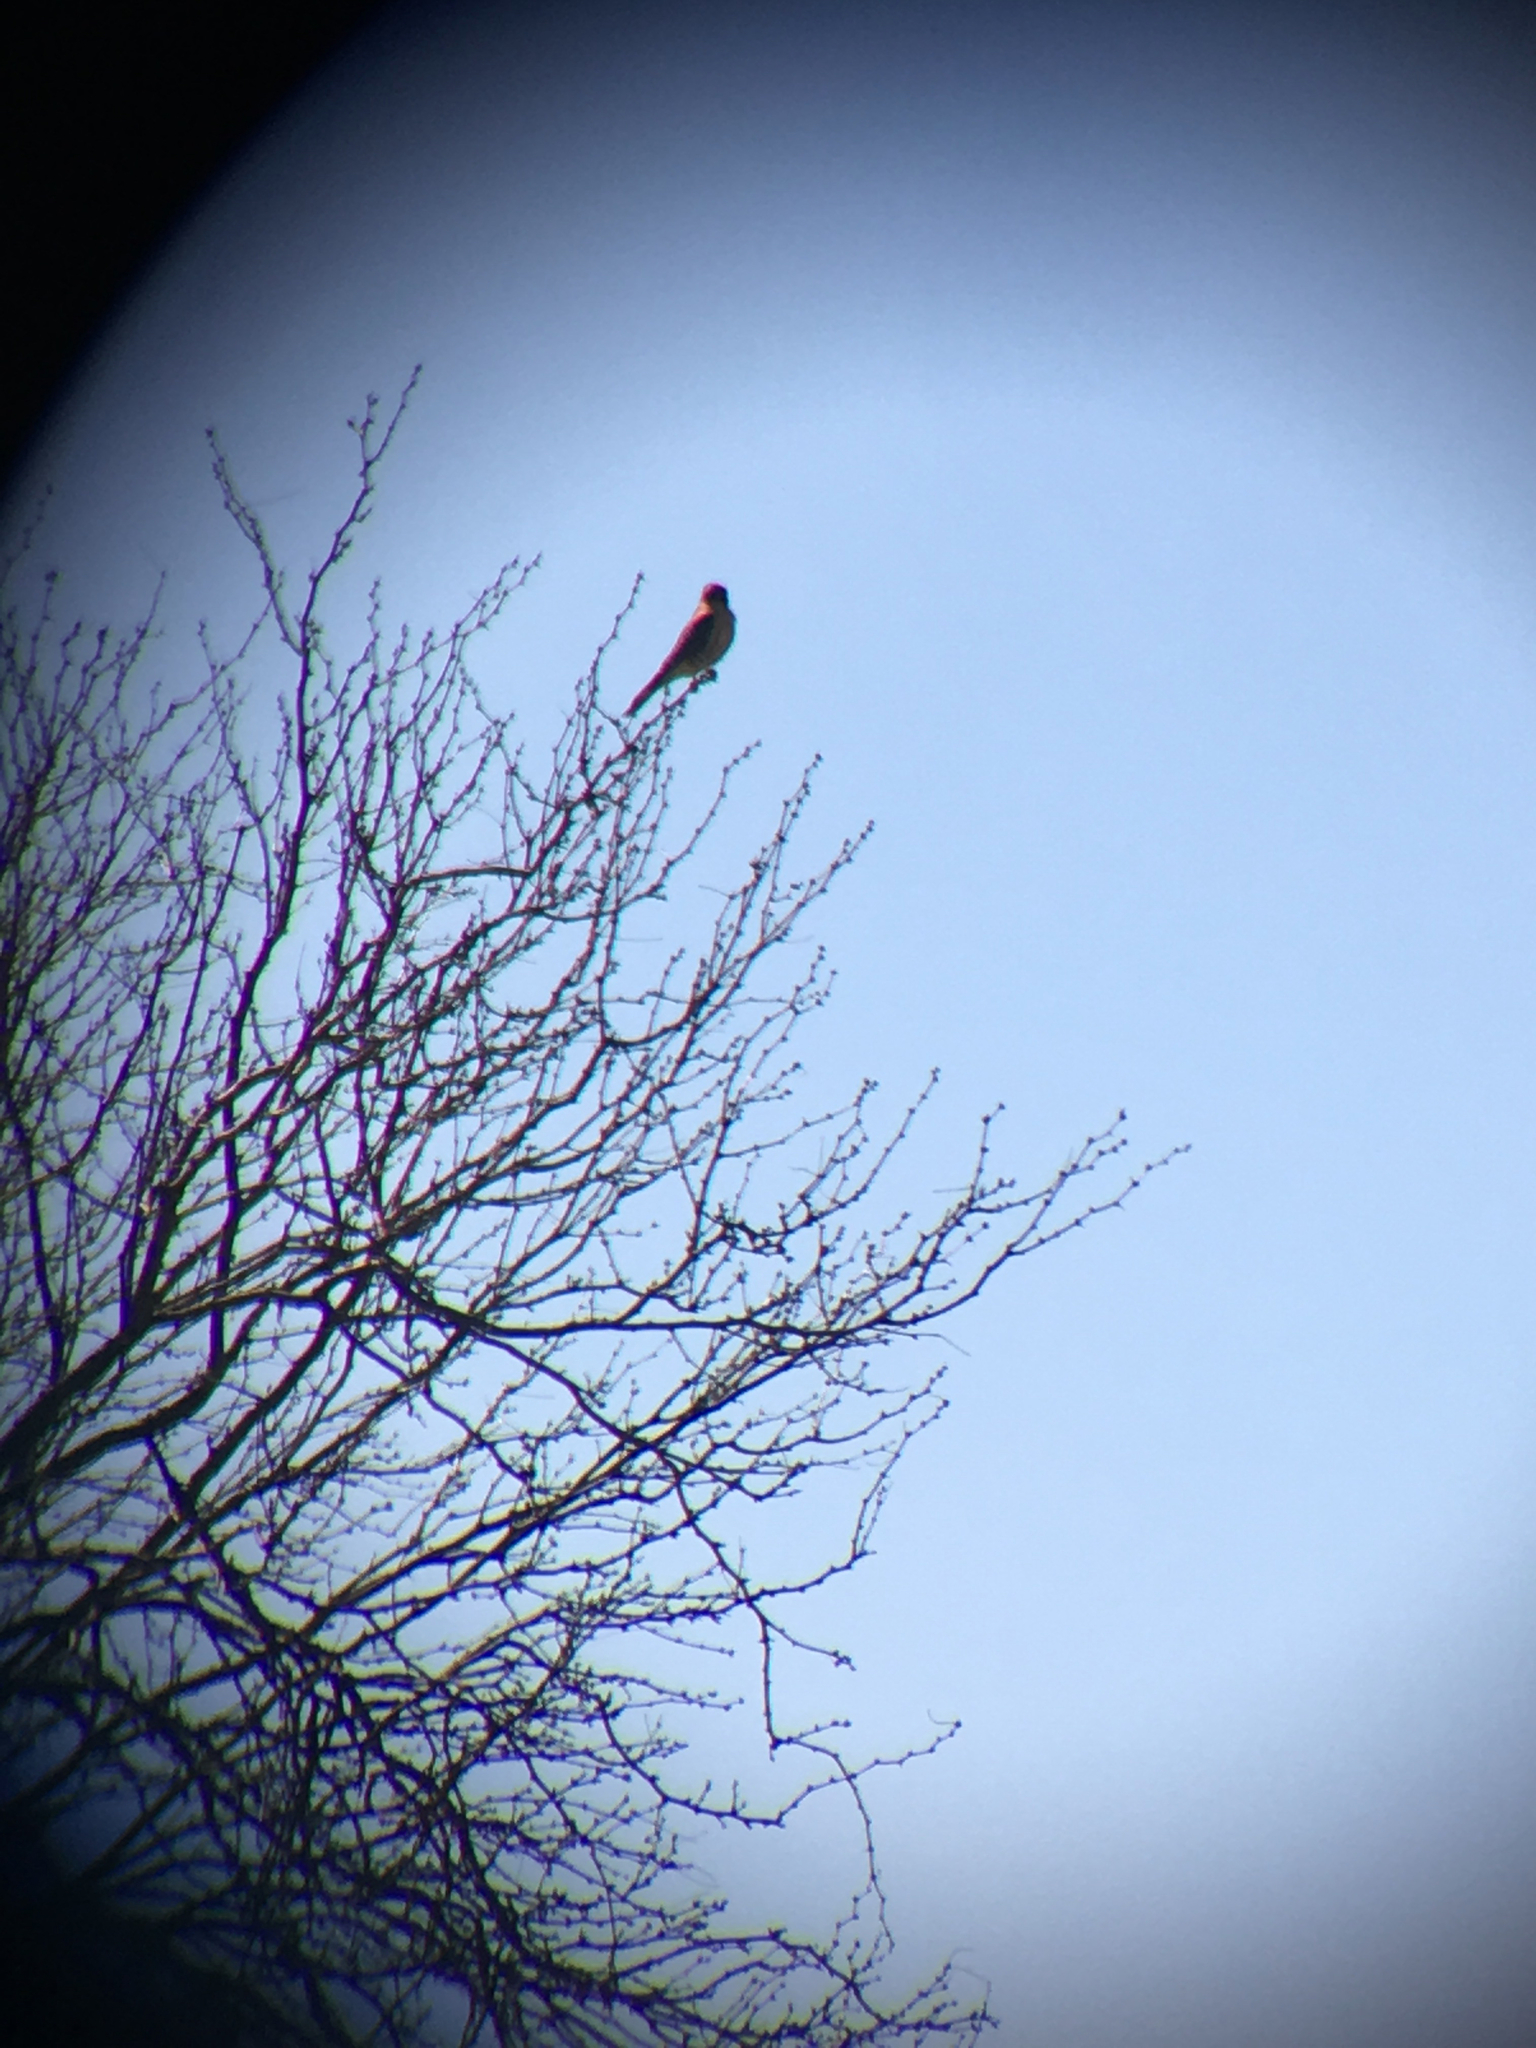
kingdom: Animalia
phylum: Chordata
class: Aves
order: Falconiformes
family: Falconidae
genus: Falco
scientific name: Falco sparverius
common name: American kestrel
